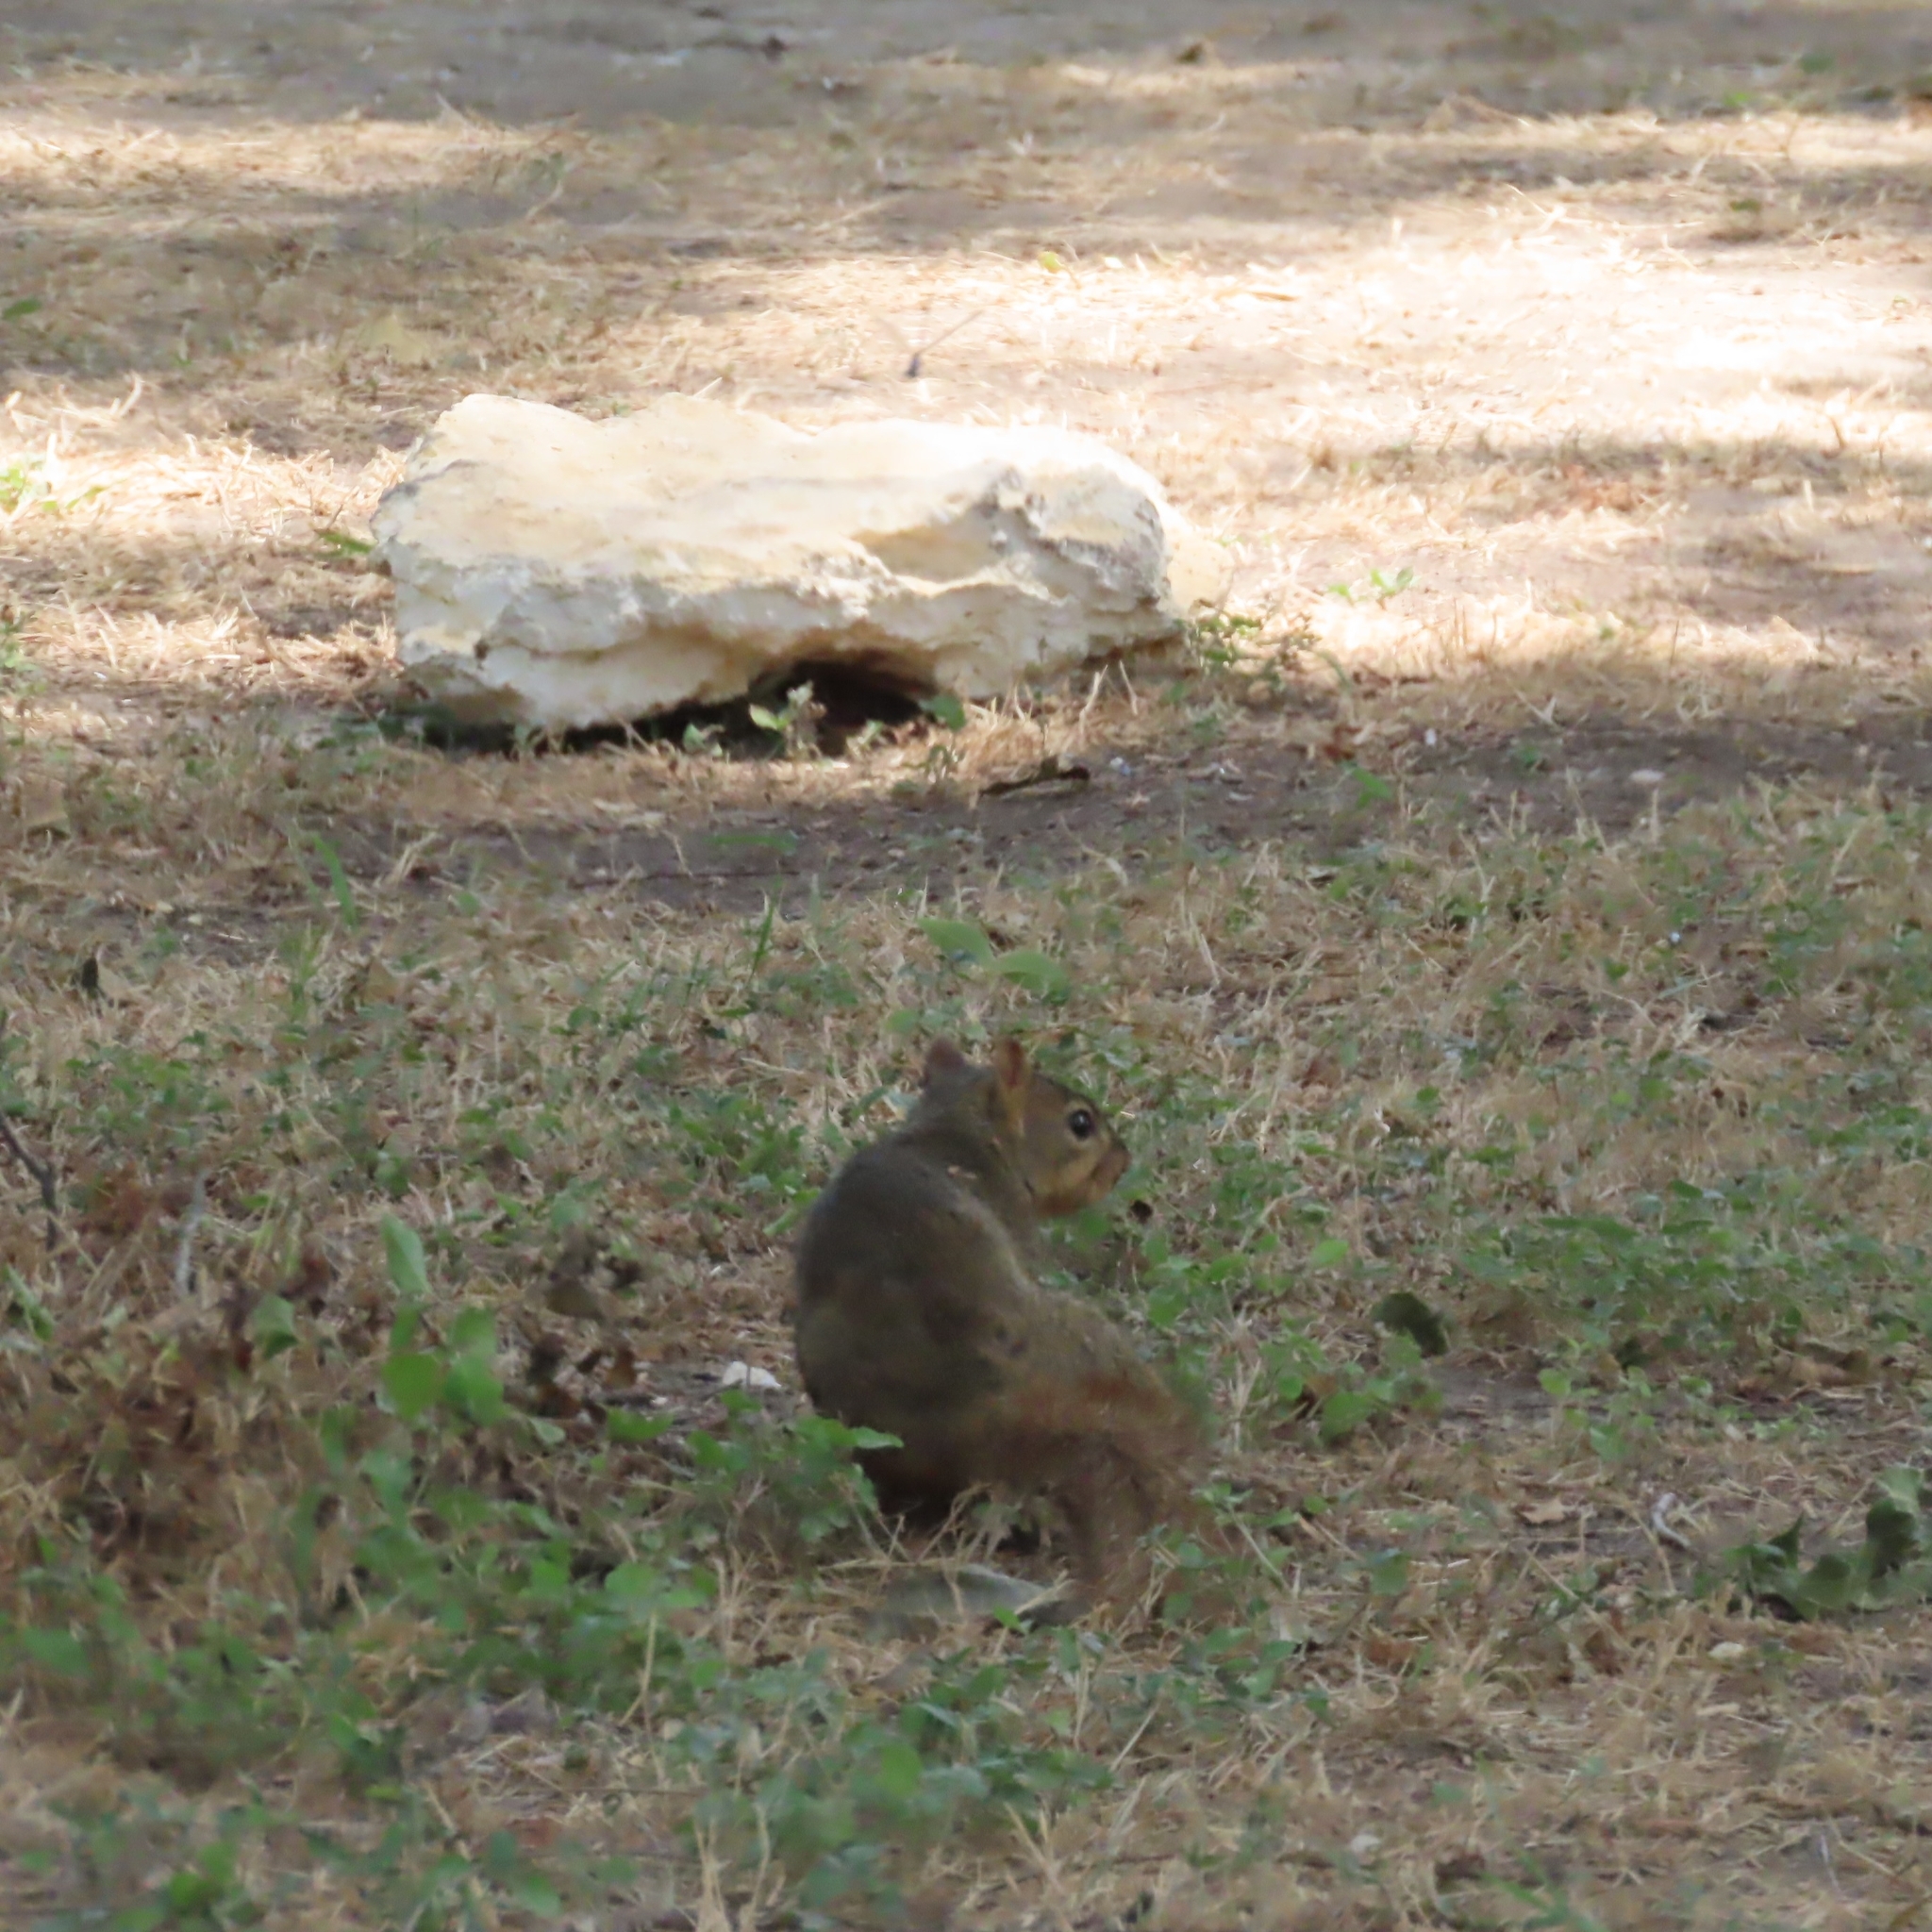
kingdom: Animalia
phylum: Chordata
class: Mammalia
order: Rodentia
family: Sciuridae
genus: Sciurus
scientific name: Sciurus niger
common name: Fox squirrel
